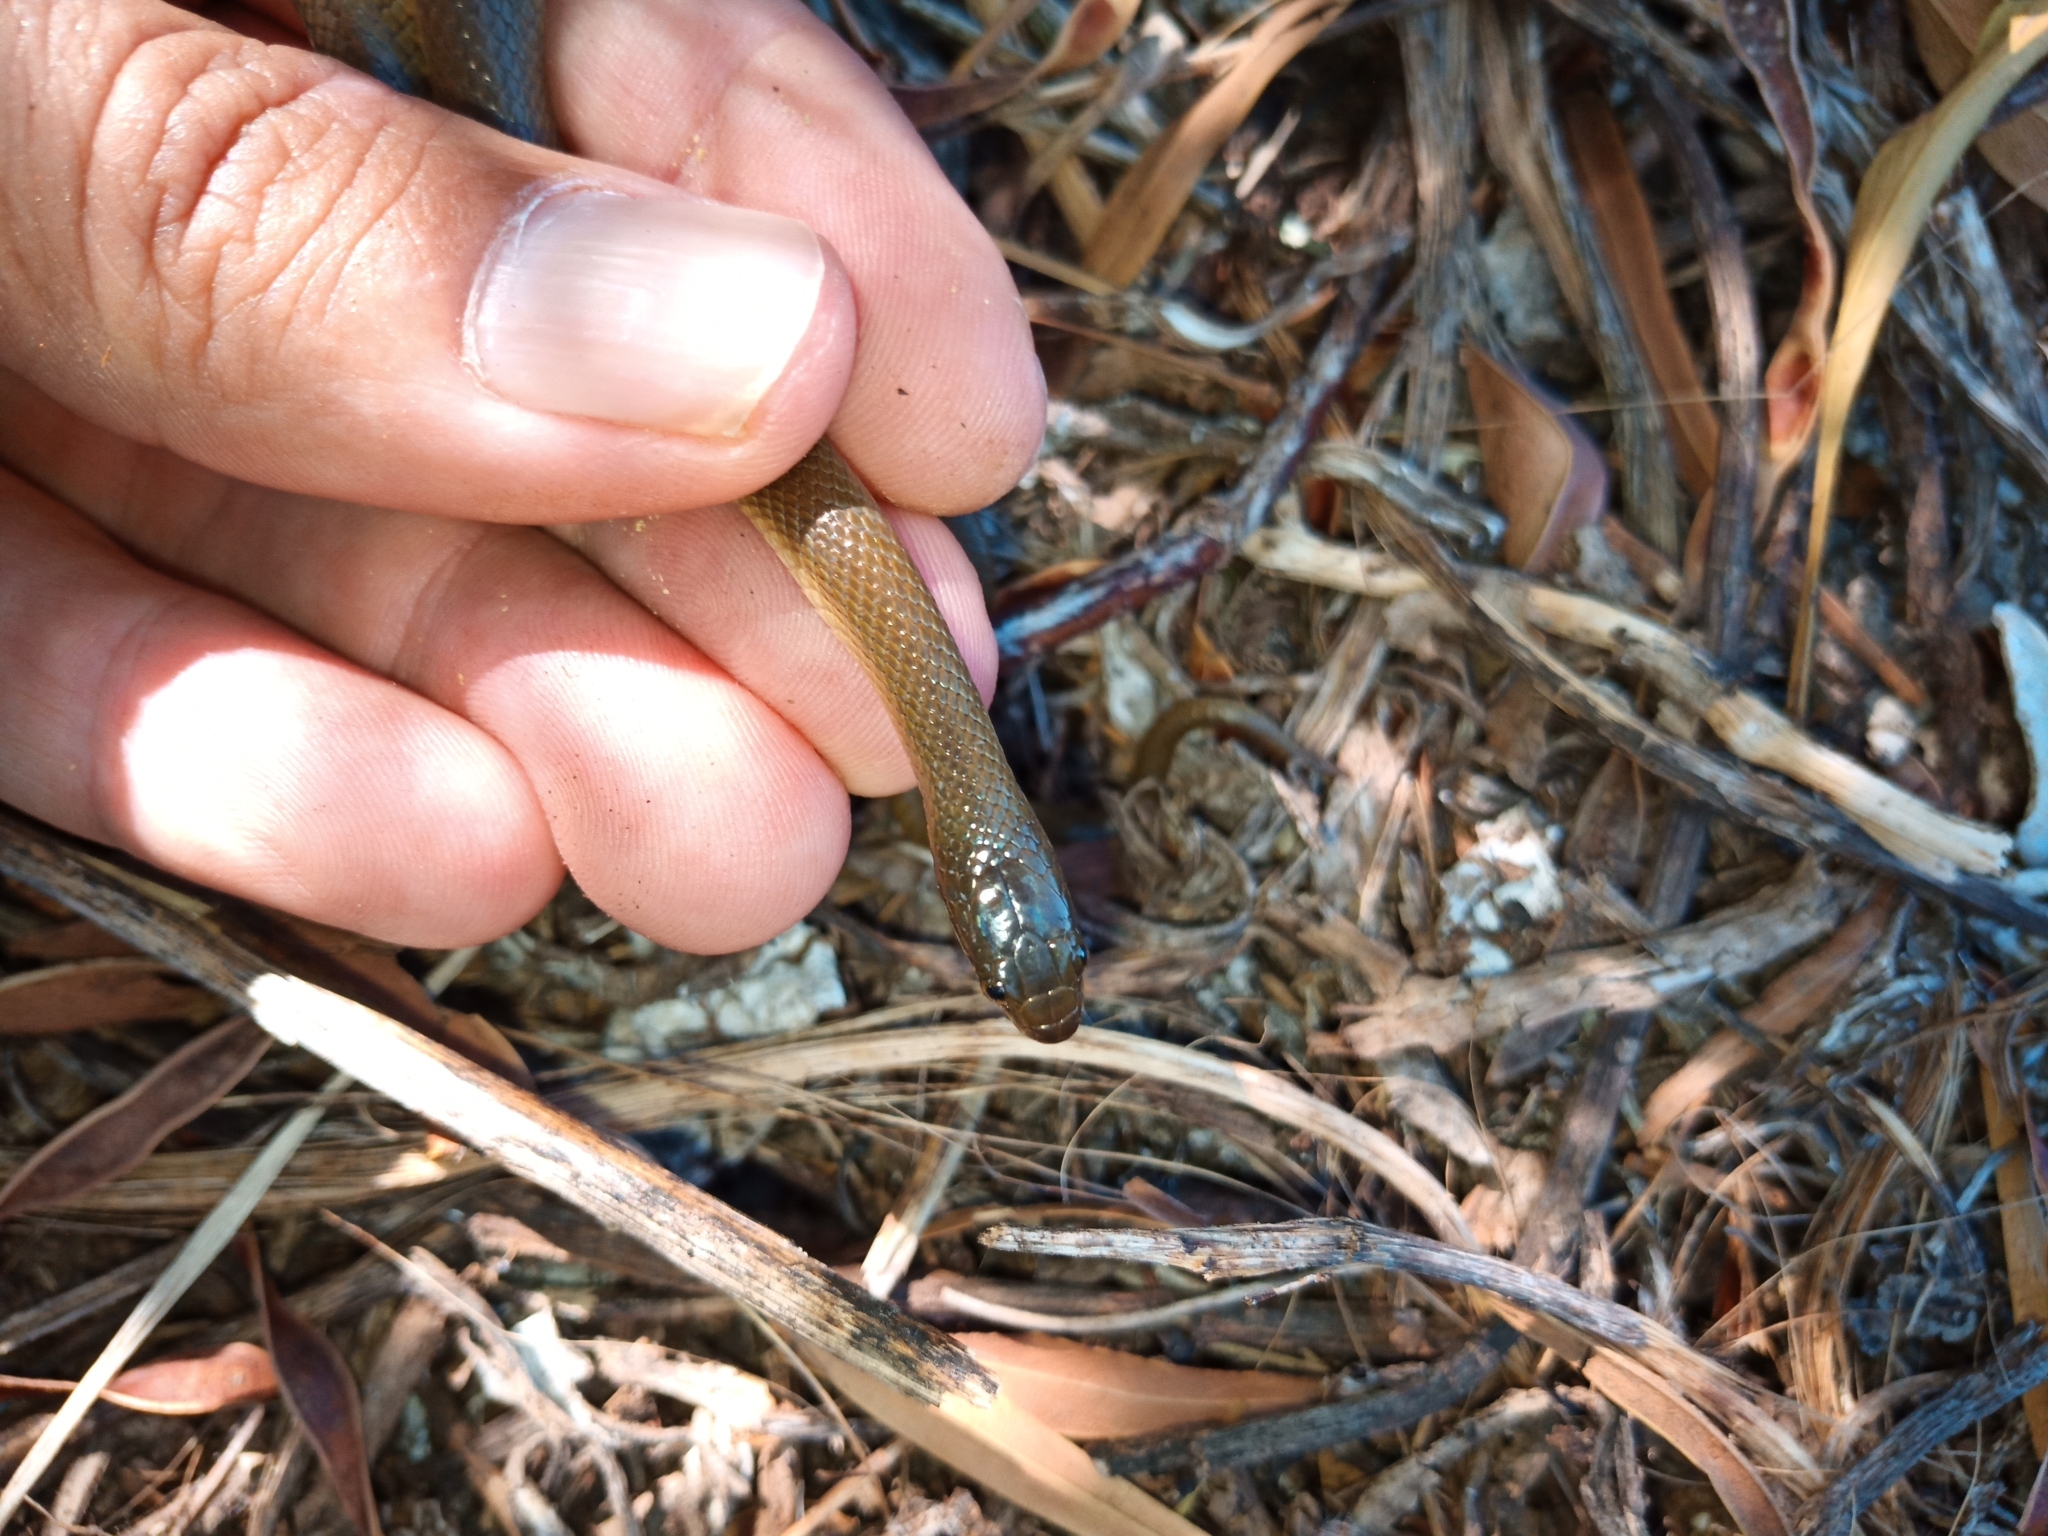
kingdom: Animalia
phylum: Chordata
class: Squamata
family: Lamprophiidae
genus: Lycodonomorphus
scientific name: Lycodonomorphus rufulus
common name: Brown water snake
